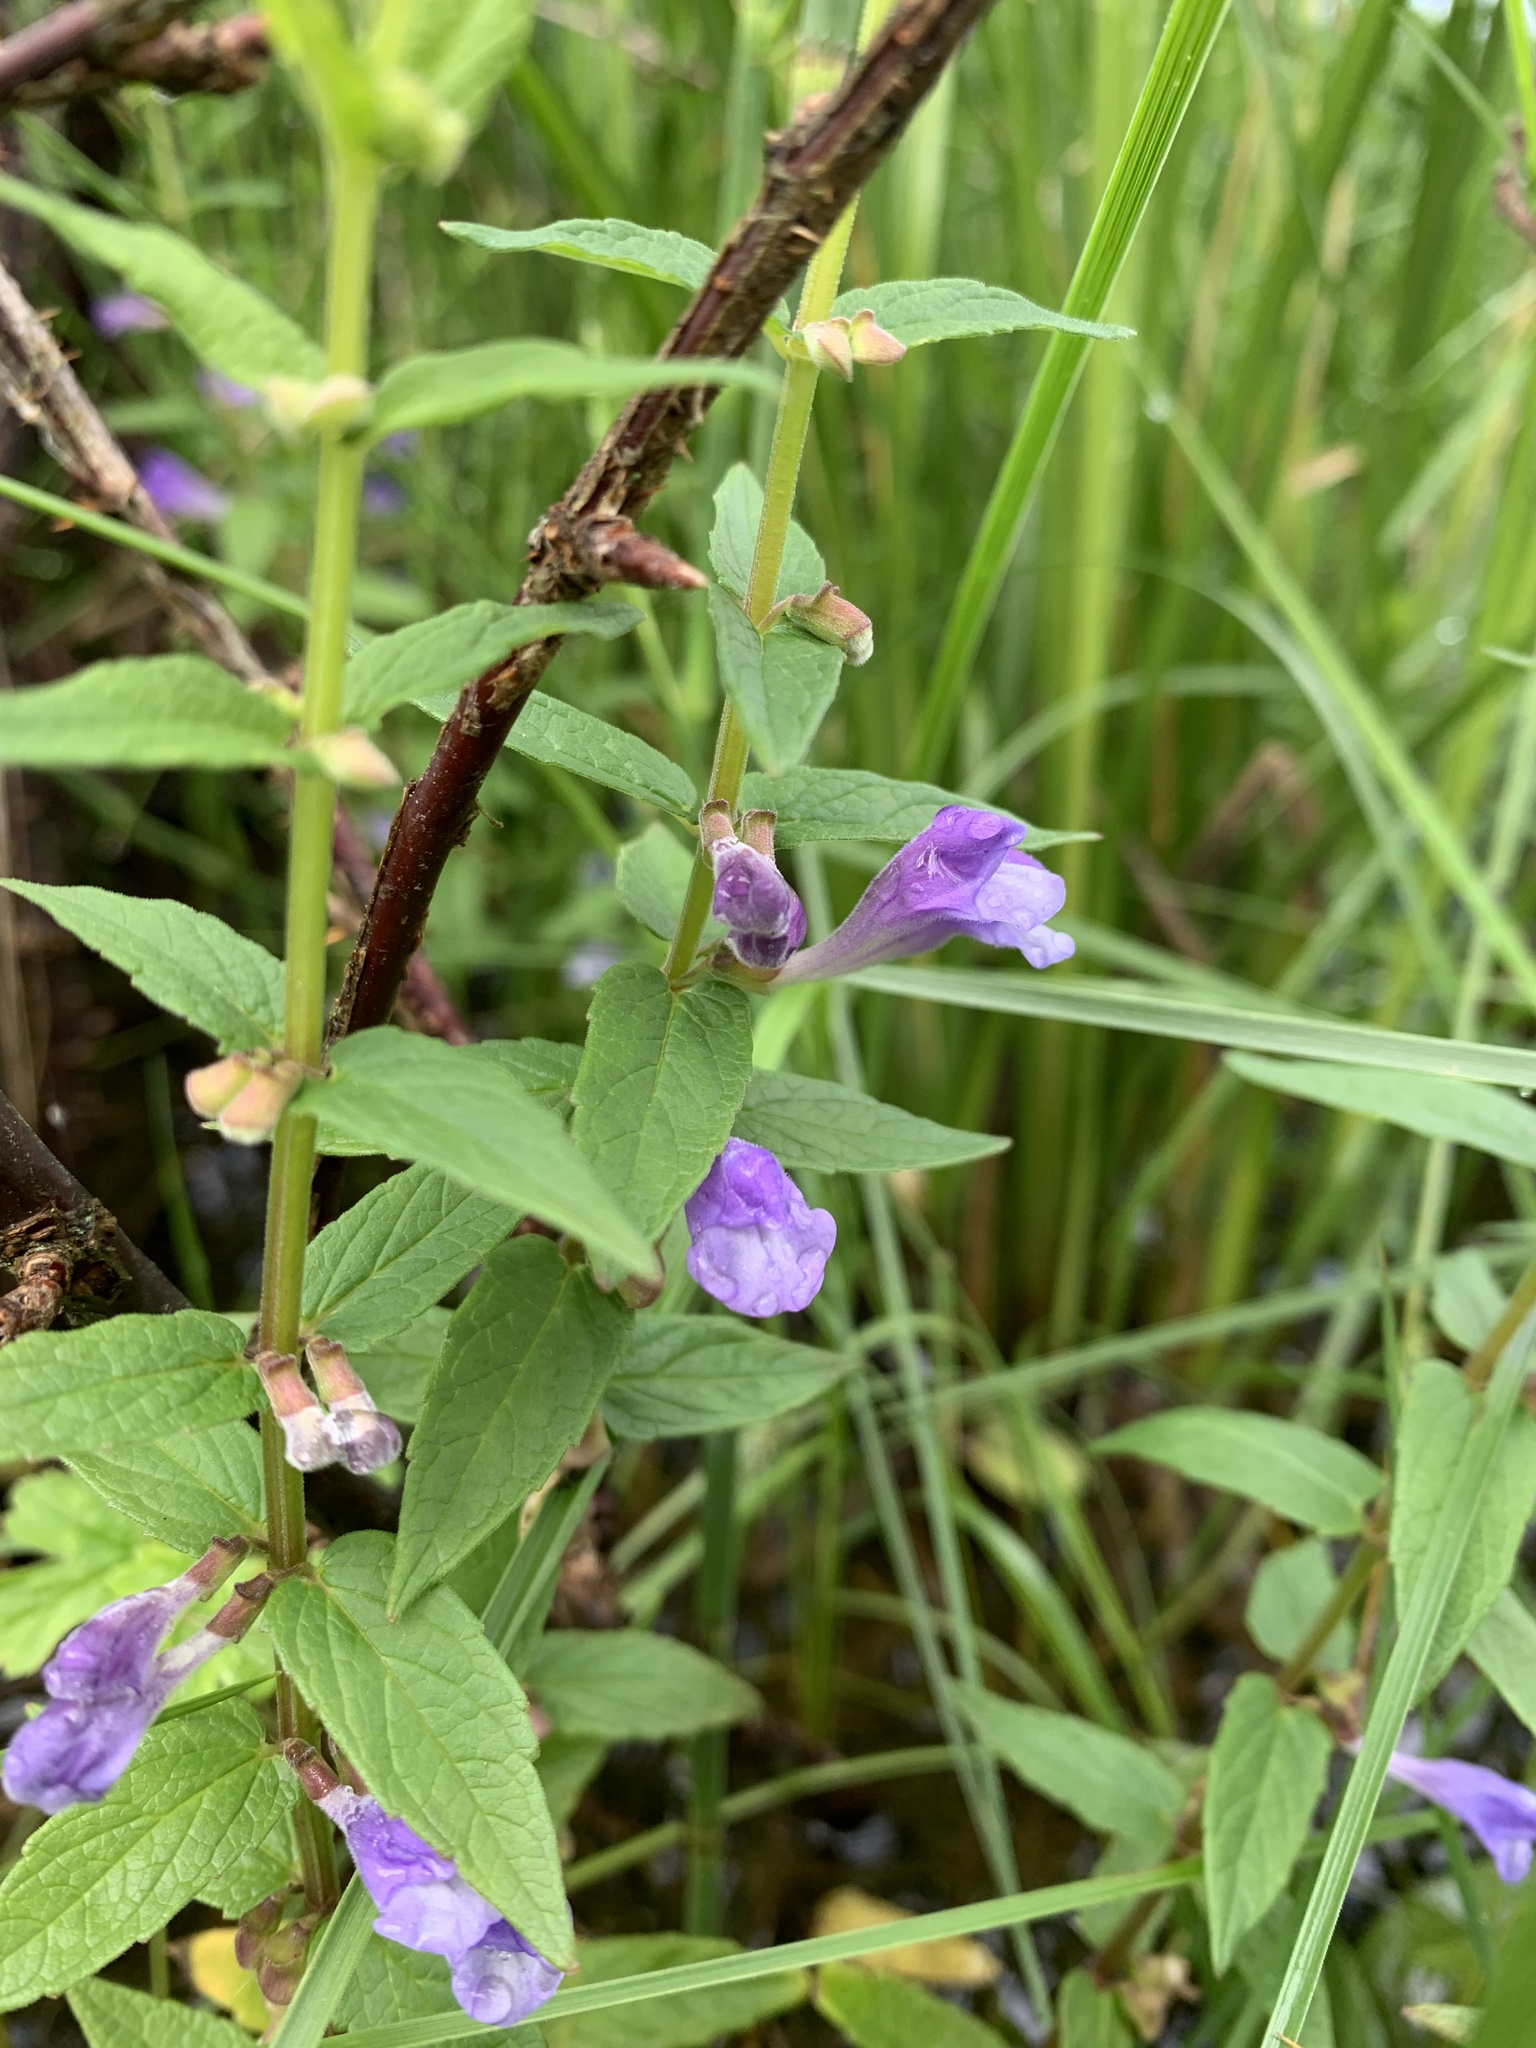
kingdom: Plantae
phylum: Tracheophyta
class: Magnoliopsida
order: Lamiales
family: Lamiaceae
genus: Scutellaria
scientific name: Scutellaria galericulata
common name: Skullcap
